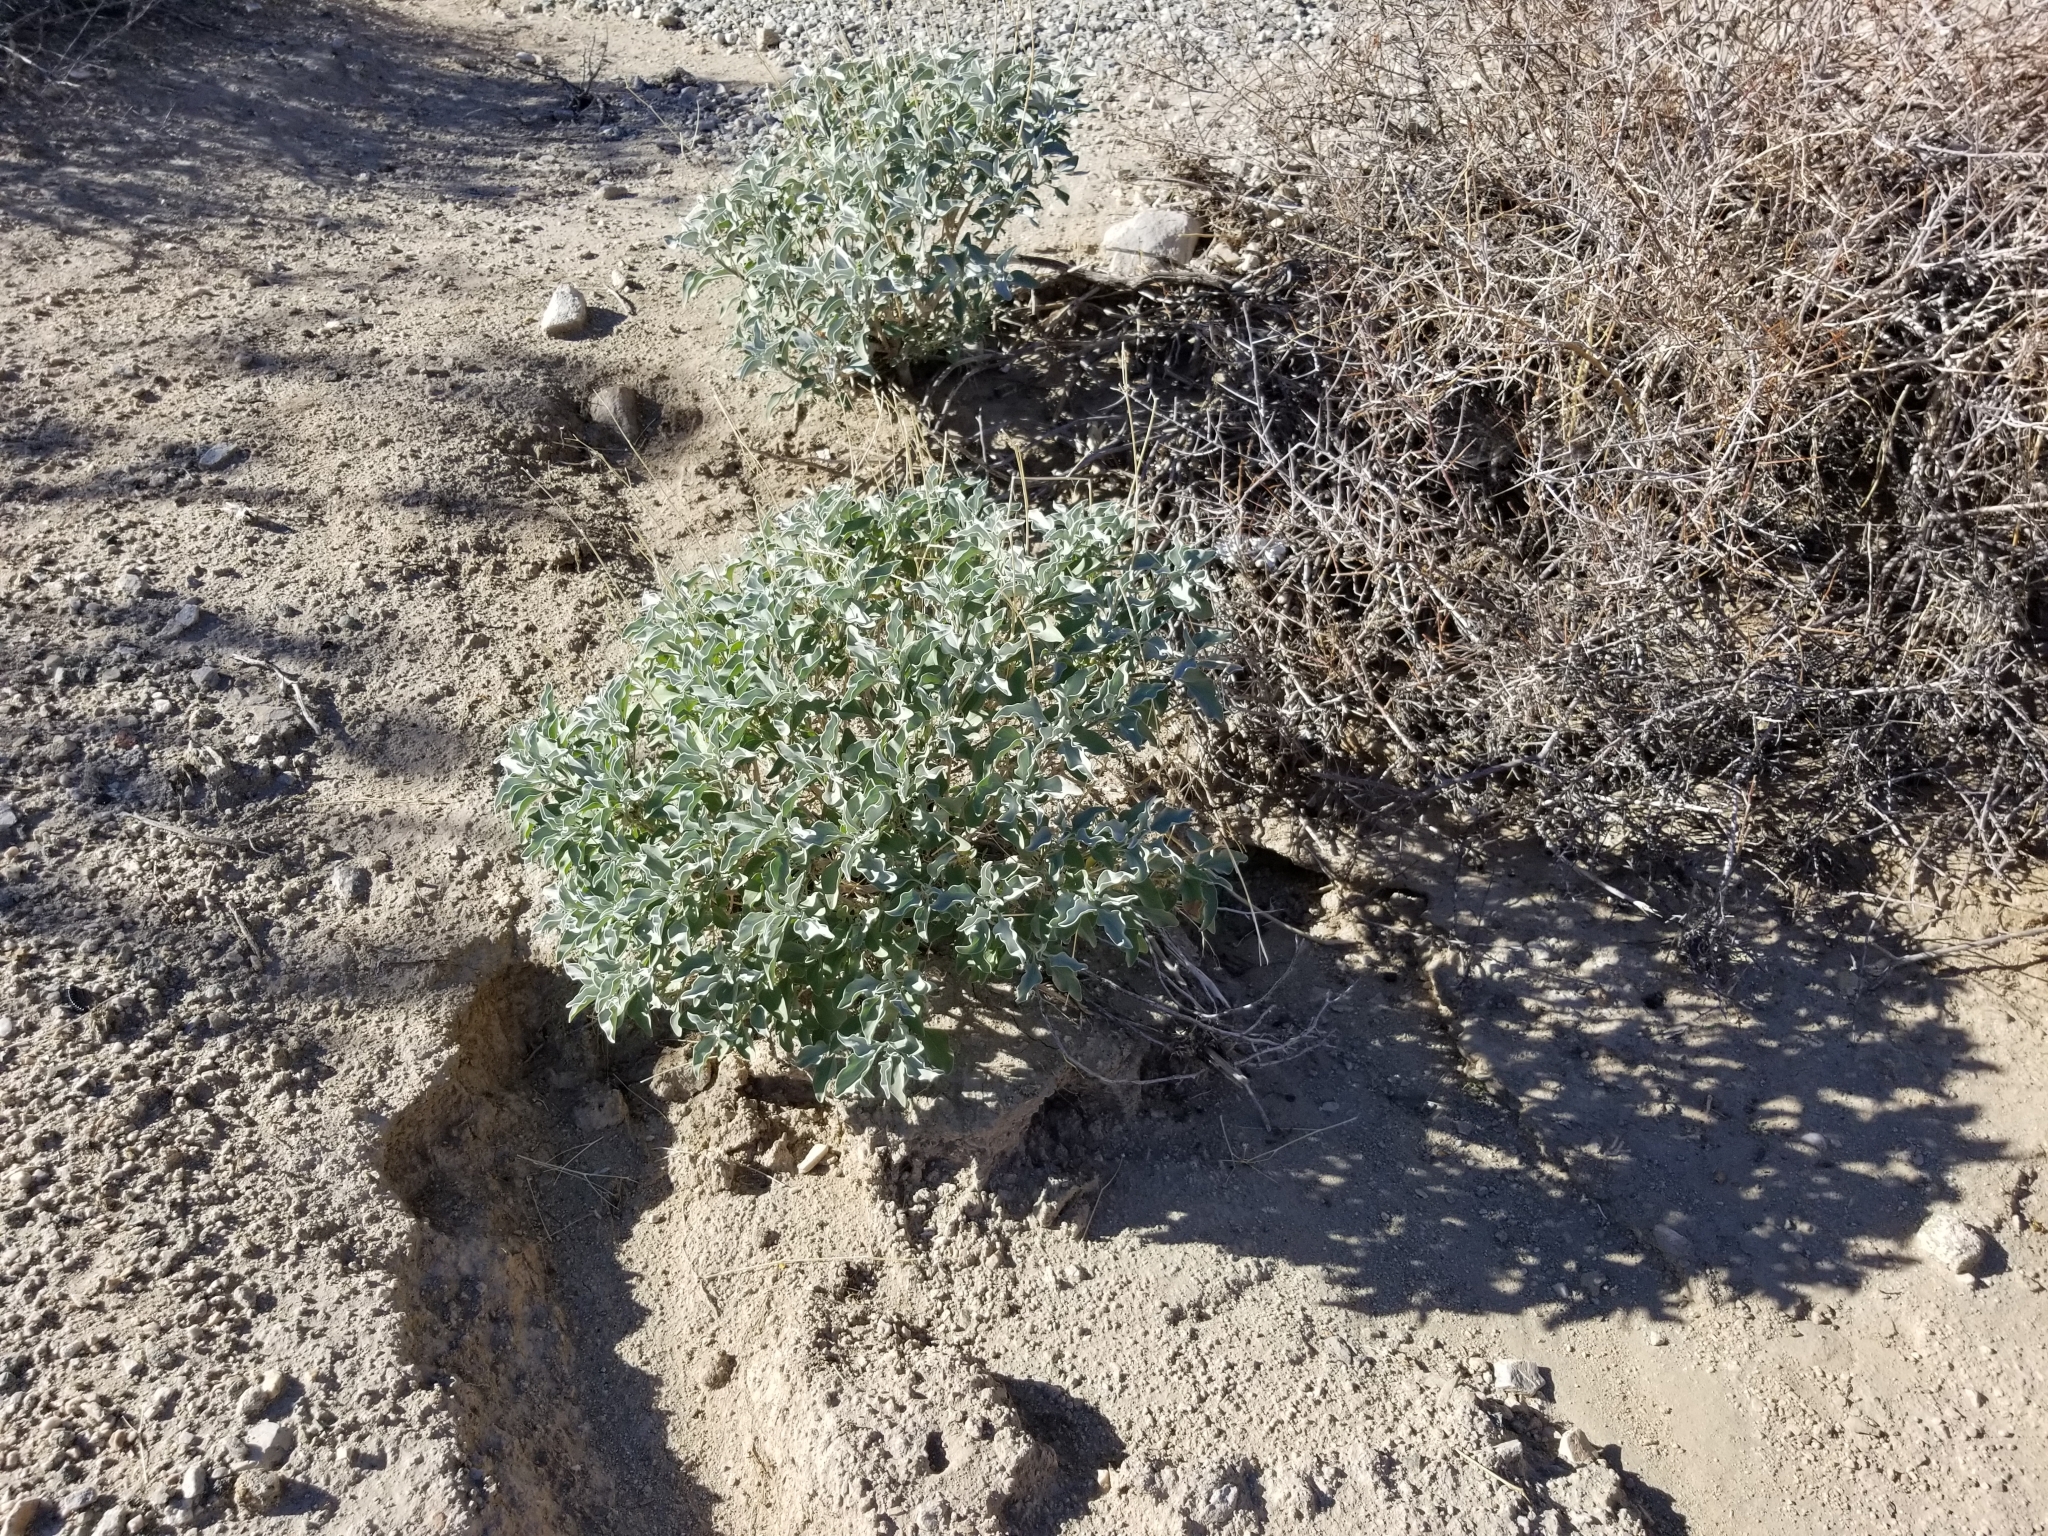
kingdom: Plantae
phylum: Tracheophyta
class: Magnoliopsida
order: Asterales
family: Asteraceae
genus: Encelia
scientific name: Encelia farinosa
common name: Brittlebush
